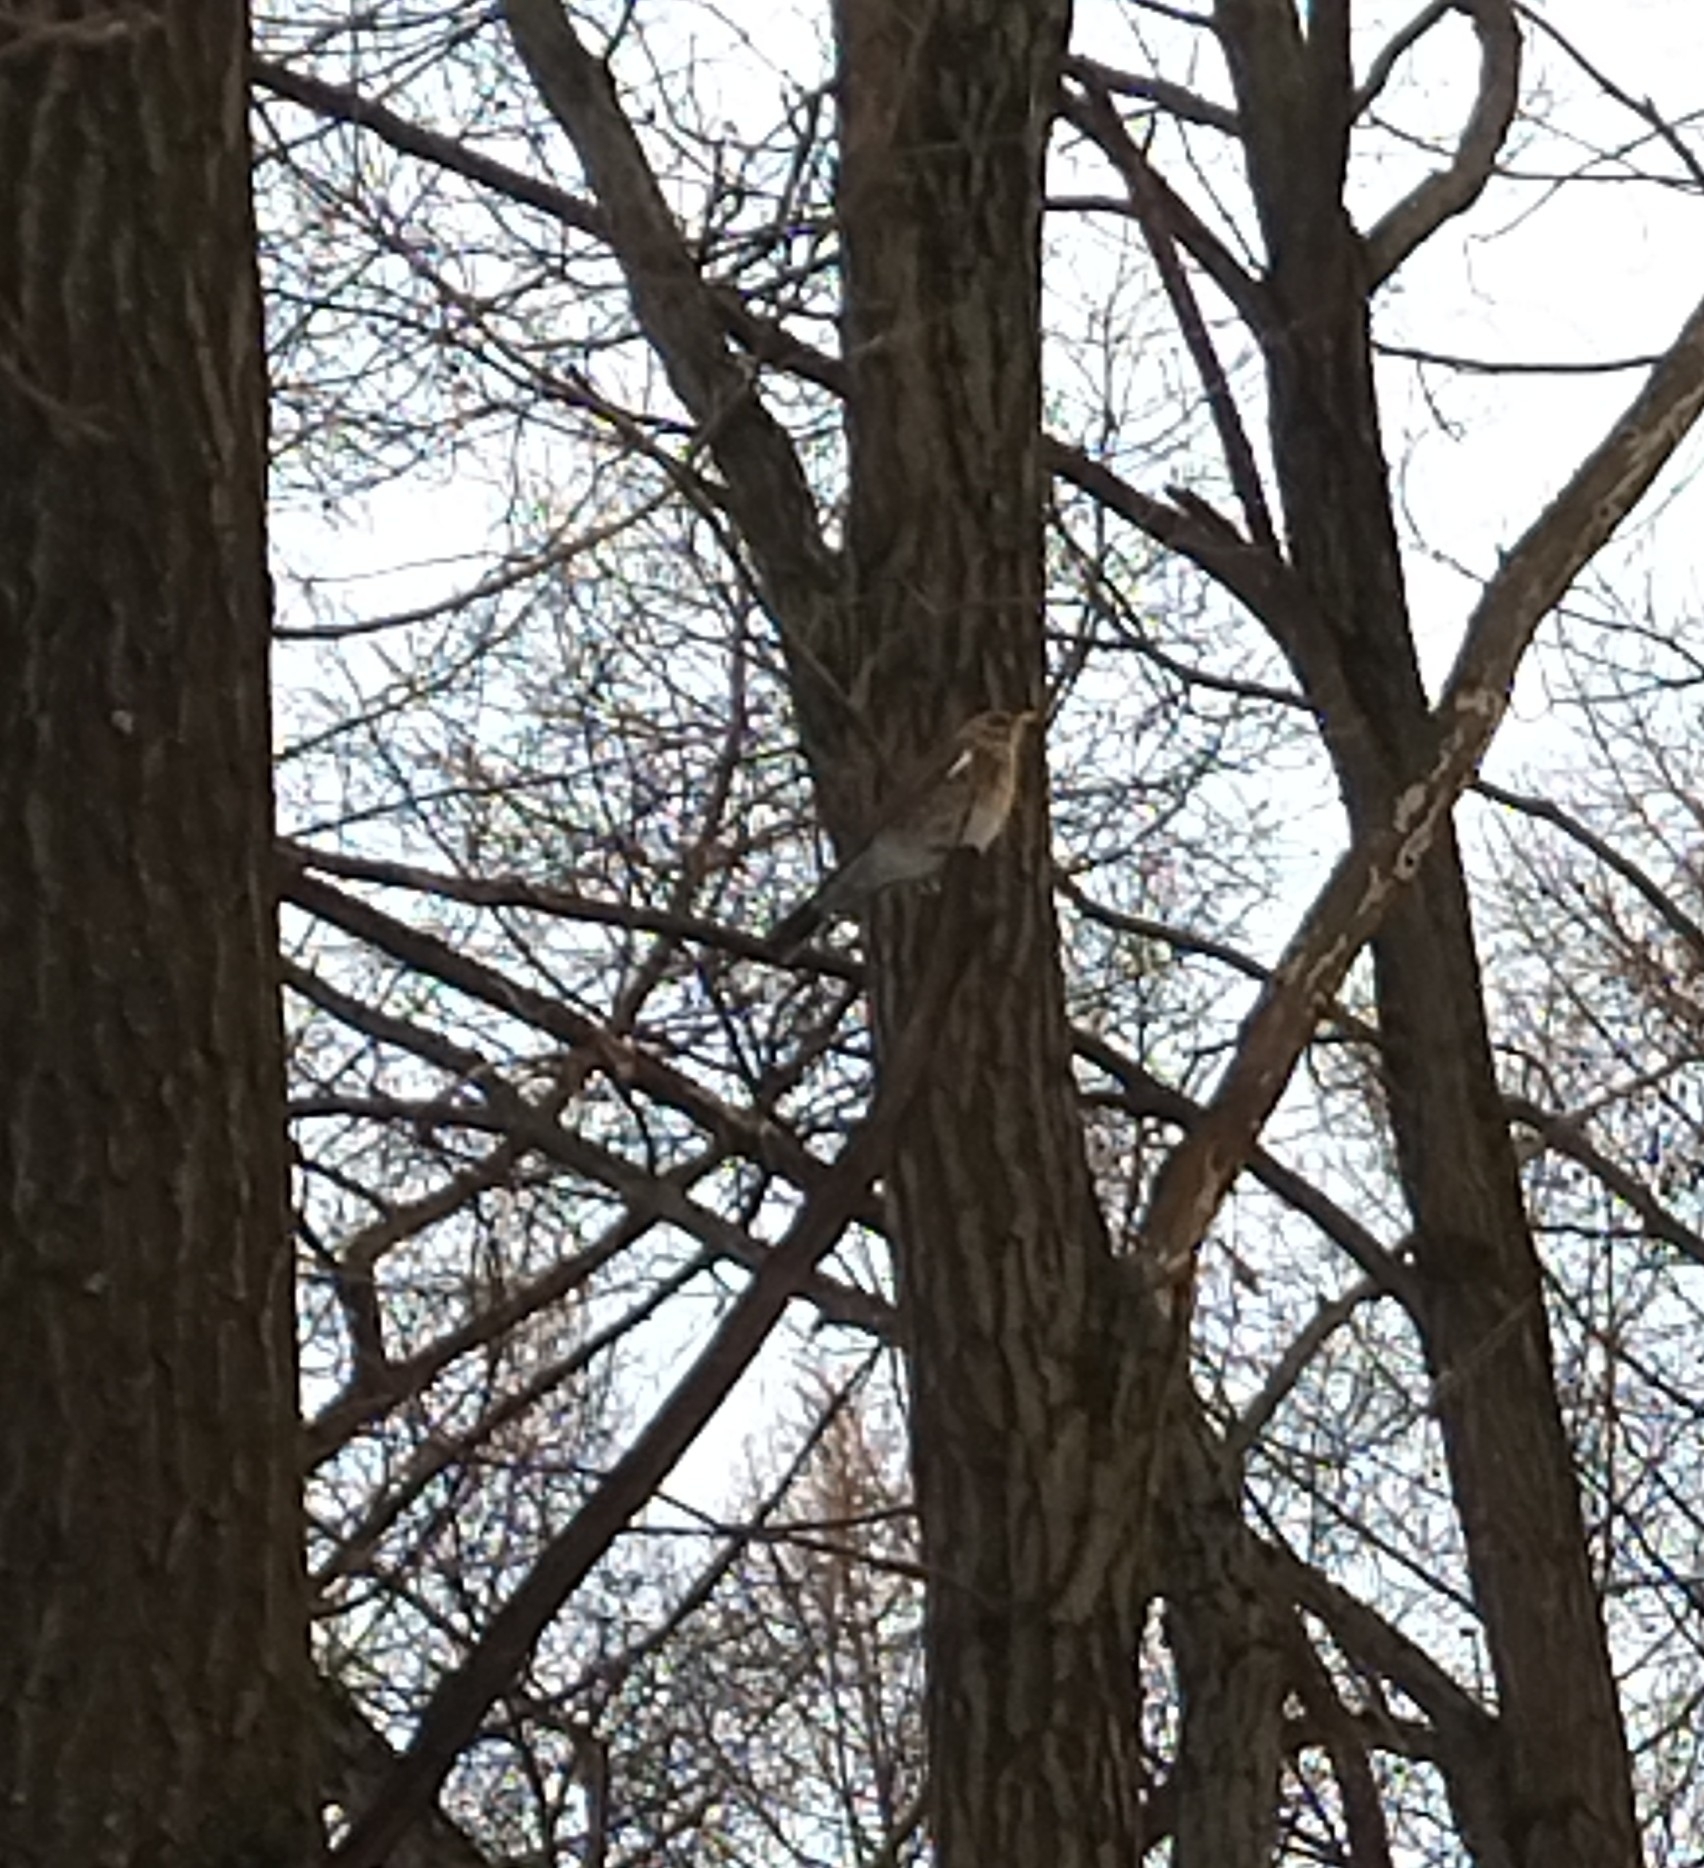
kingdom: Animalia
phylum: Chordata
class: Aves
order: Passeriformes
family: Turdidae
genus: Turdus
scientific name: Turdus pilaris
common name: Fieldfare
